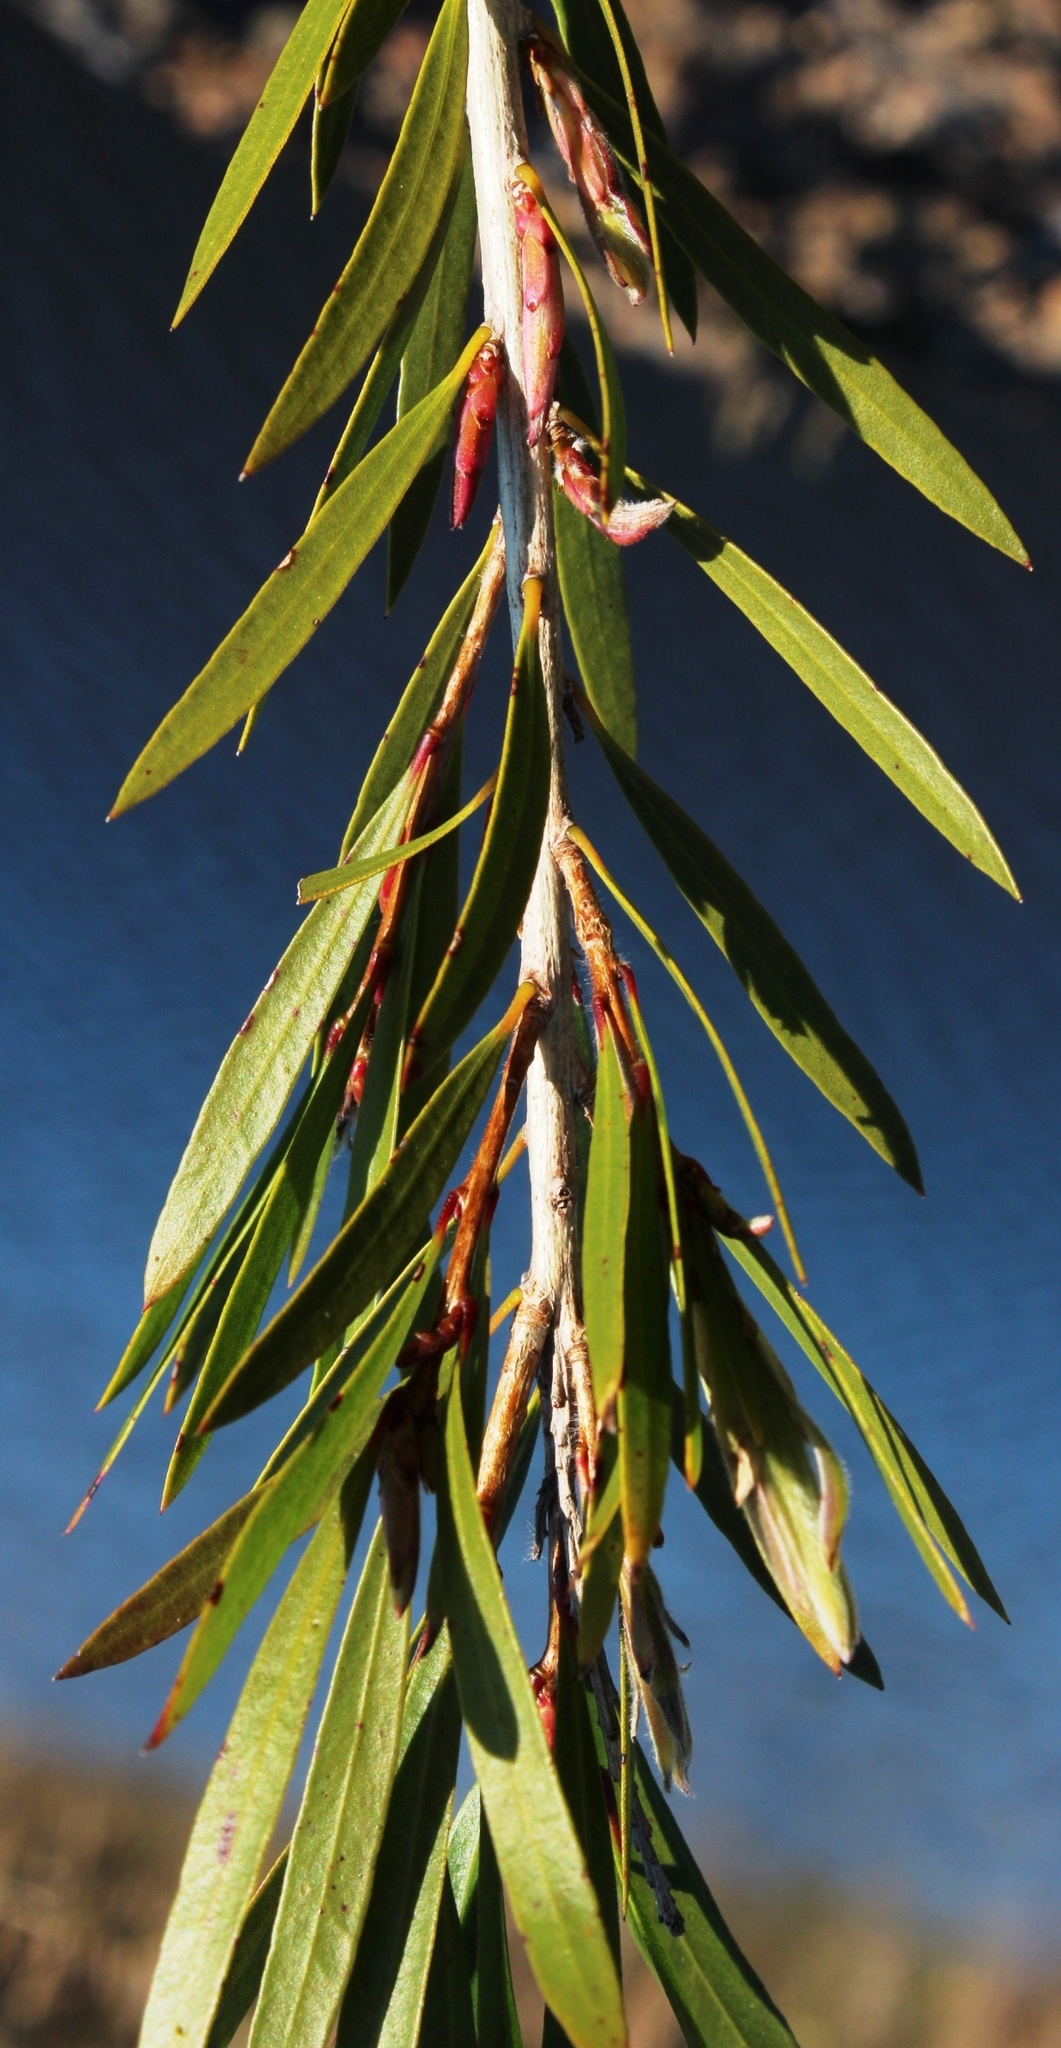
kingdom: Plantae
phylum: Tracheophyta
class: Magnoliopsida
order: Myrtales
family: Myrtaceae
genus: Callistemon
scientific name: Callistemon viminalis
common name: Drooping bottlebrush
